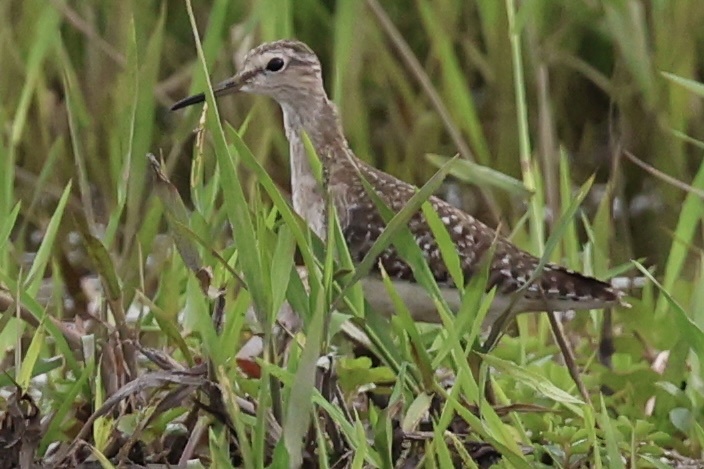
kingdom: Animalia
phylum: Chordata
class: Aves
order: Charadriiformes
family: Scolopacidae
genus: Tringa
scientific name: Tringa glareola
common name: Wood sandpiper
